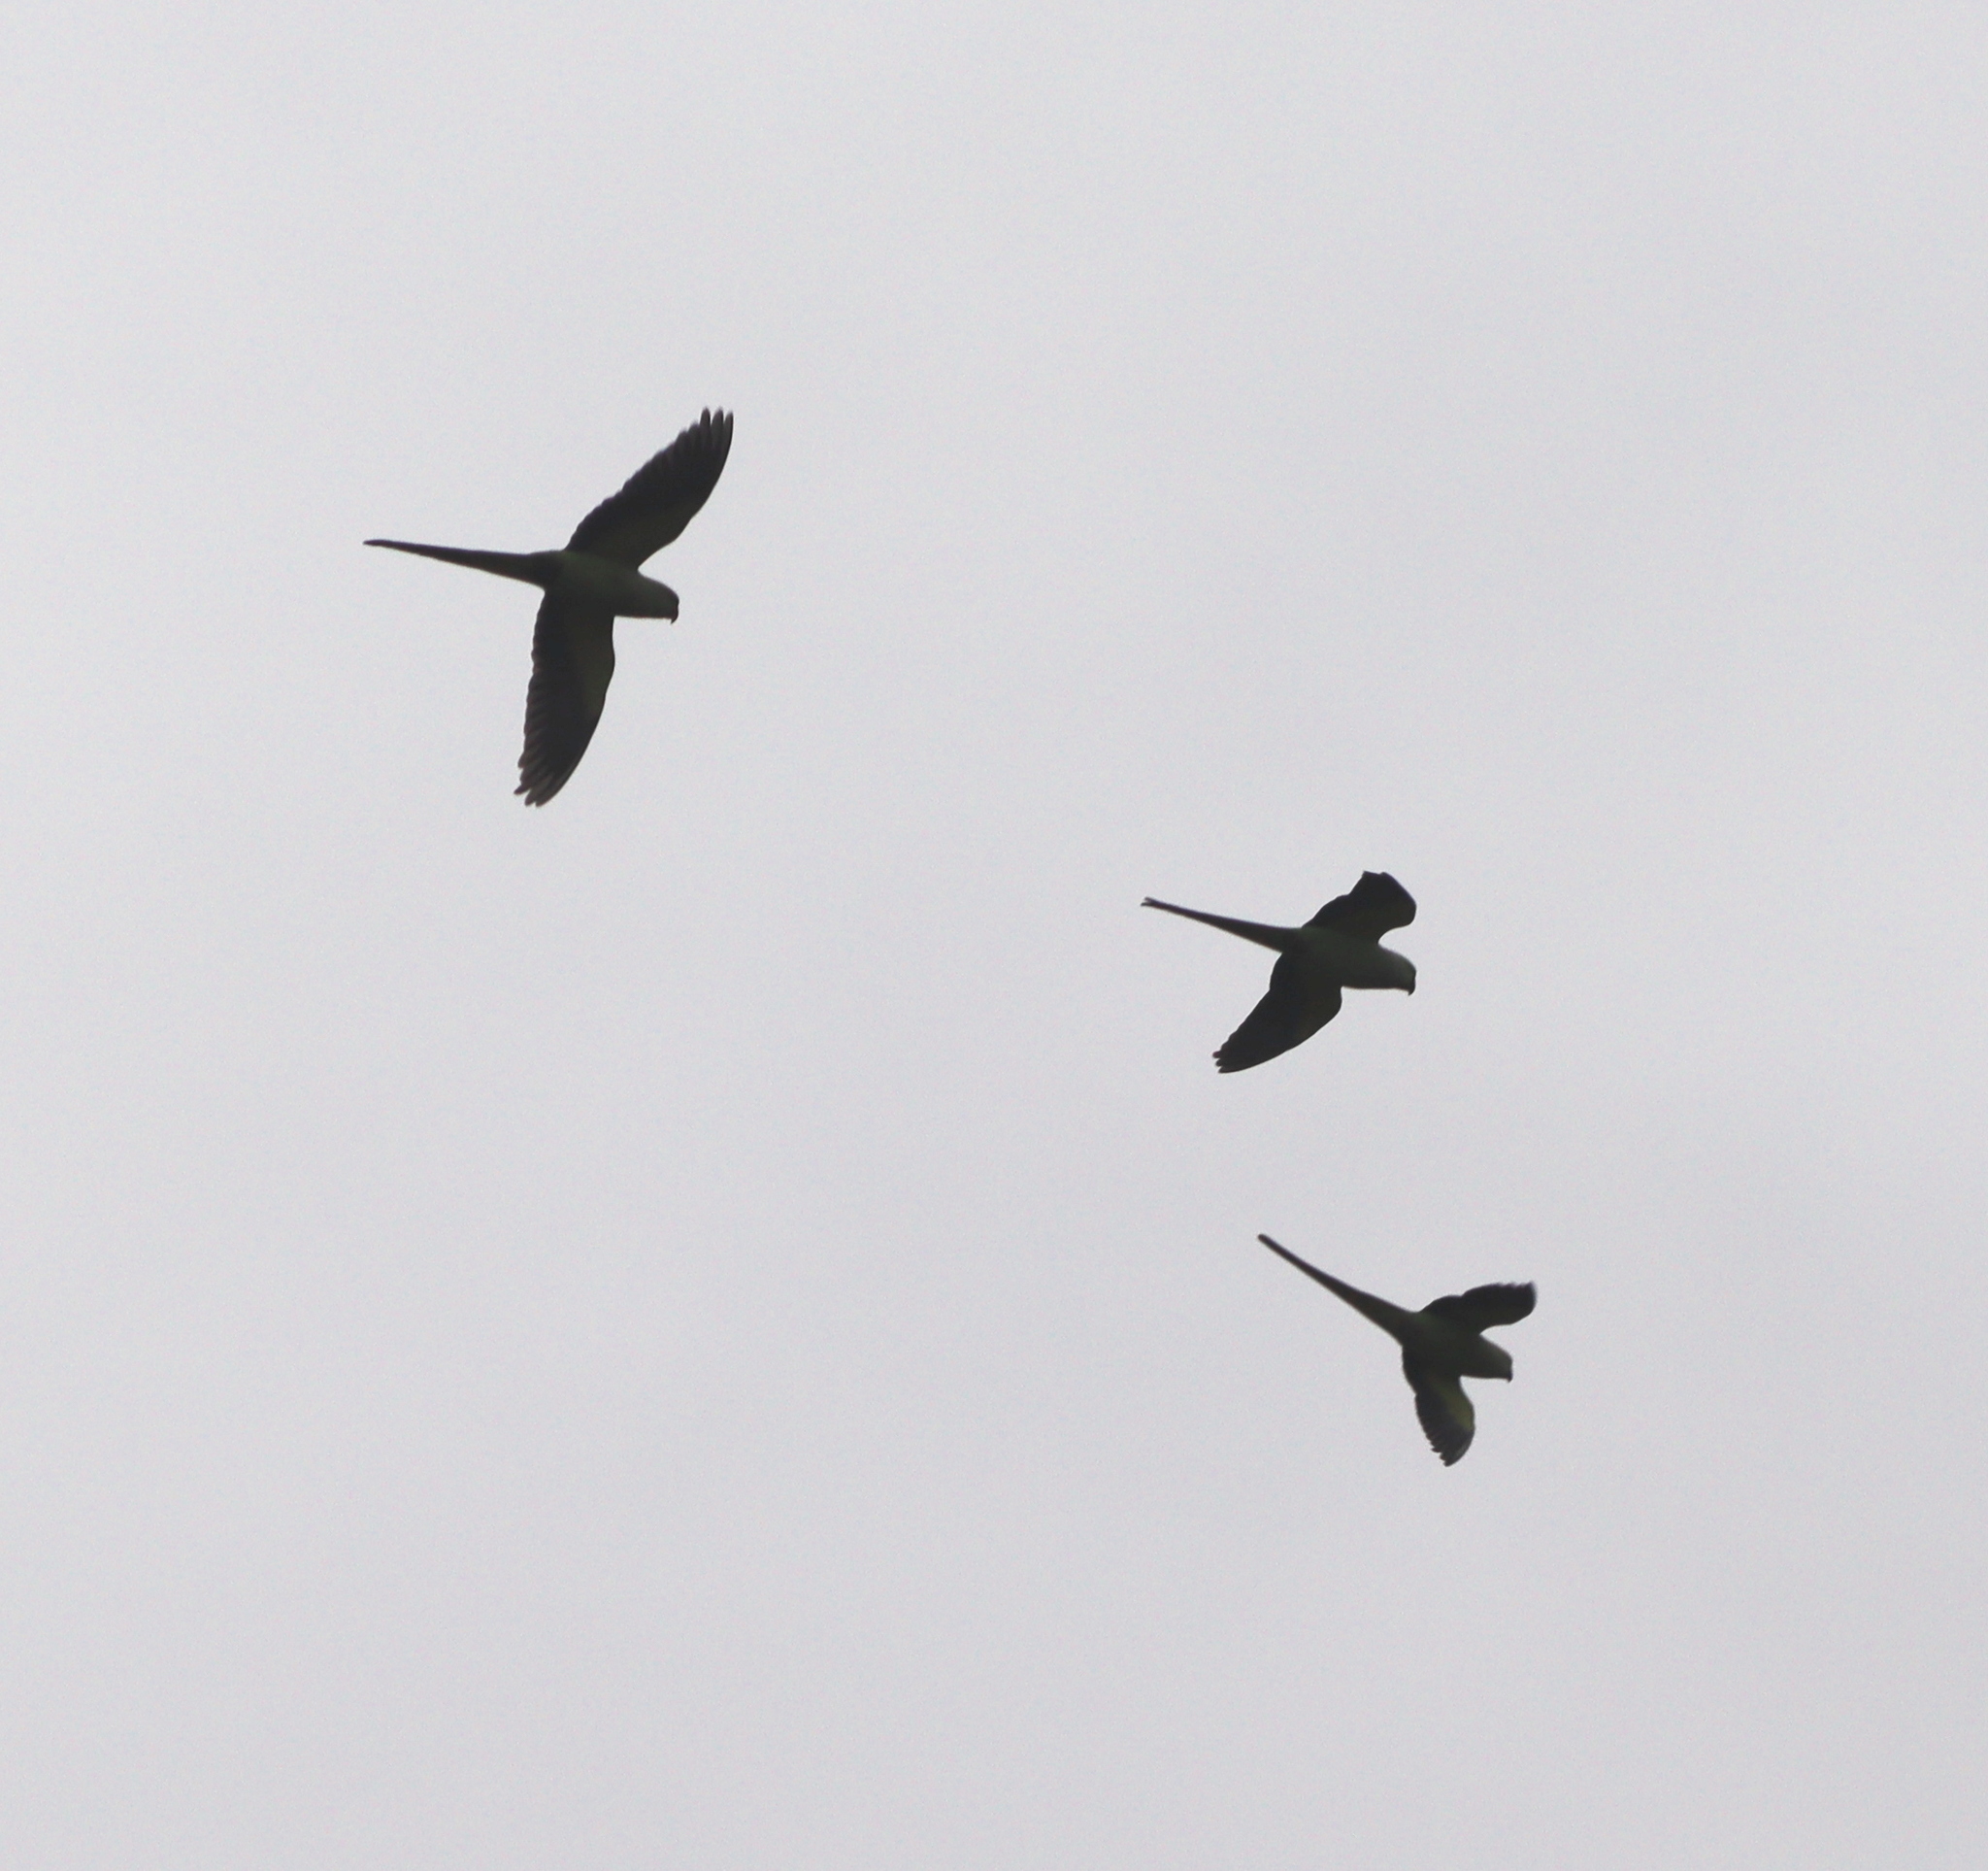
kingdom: Animalia
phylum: Chordata
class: Aves
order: Psittaciformes
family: Psittacidae
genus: Psittacula
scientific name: Psittacula krameri
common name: Rose-ringed parakeet
